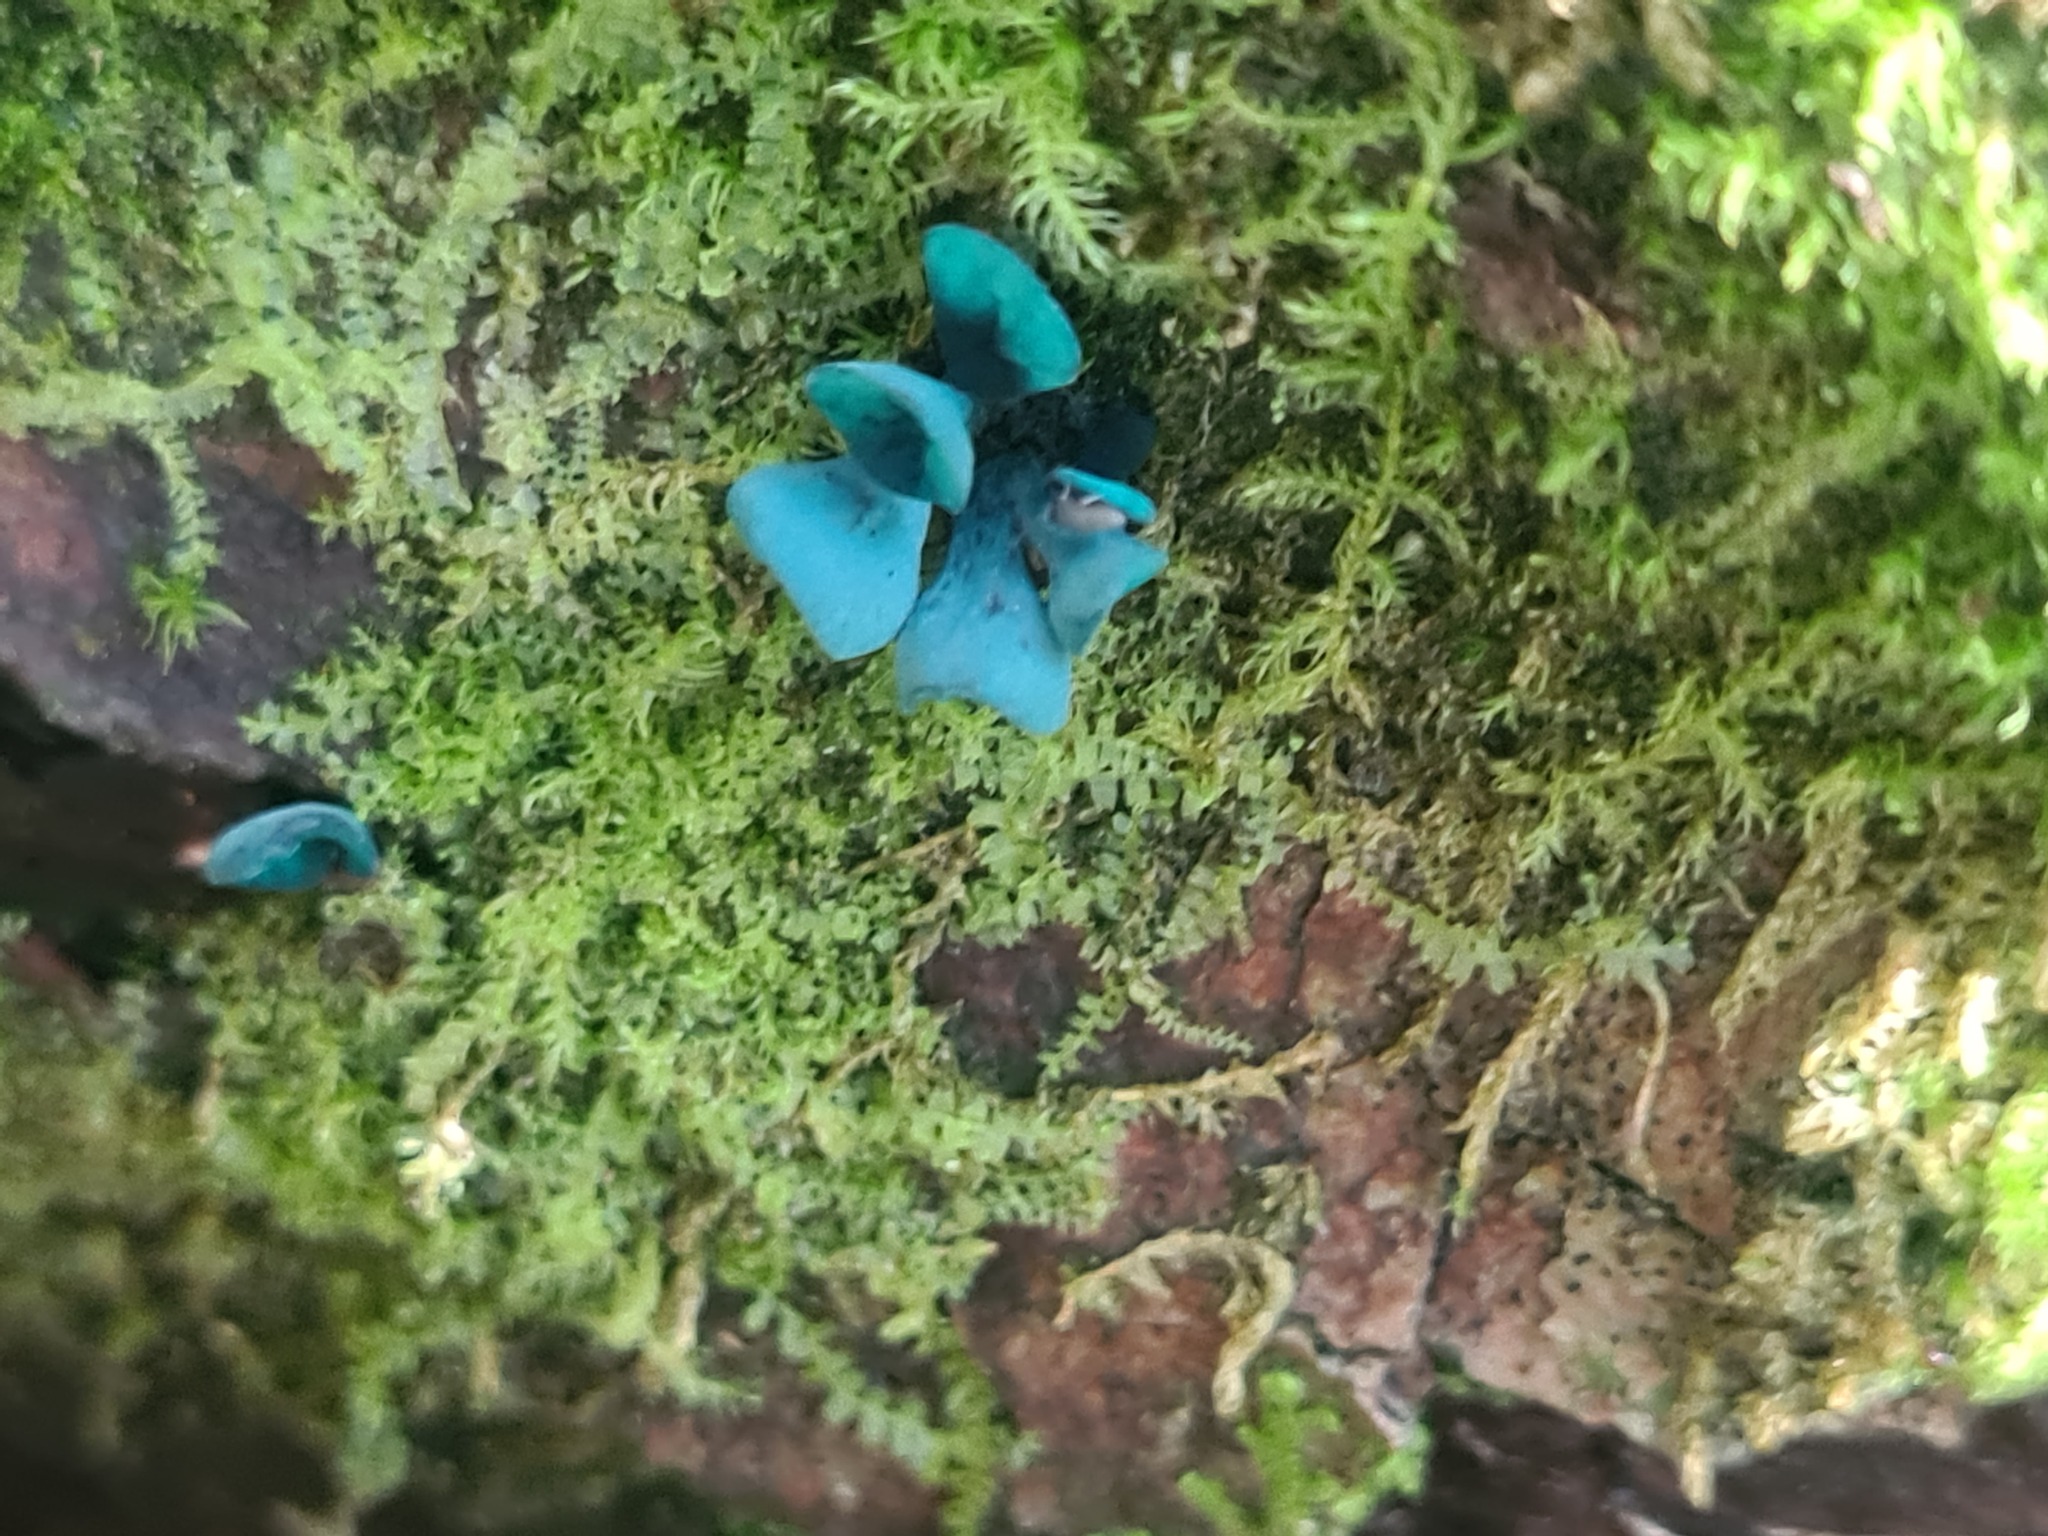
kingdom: Fungi
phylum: Ascomycota
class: Leotiomycetes
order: Helotiales
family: Chlorociboriaceae
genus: Chlorociboria
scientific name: Chlorociboria aeruginascens
